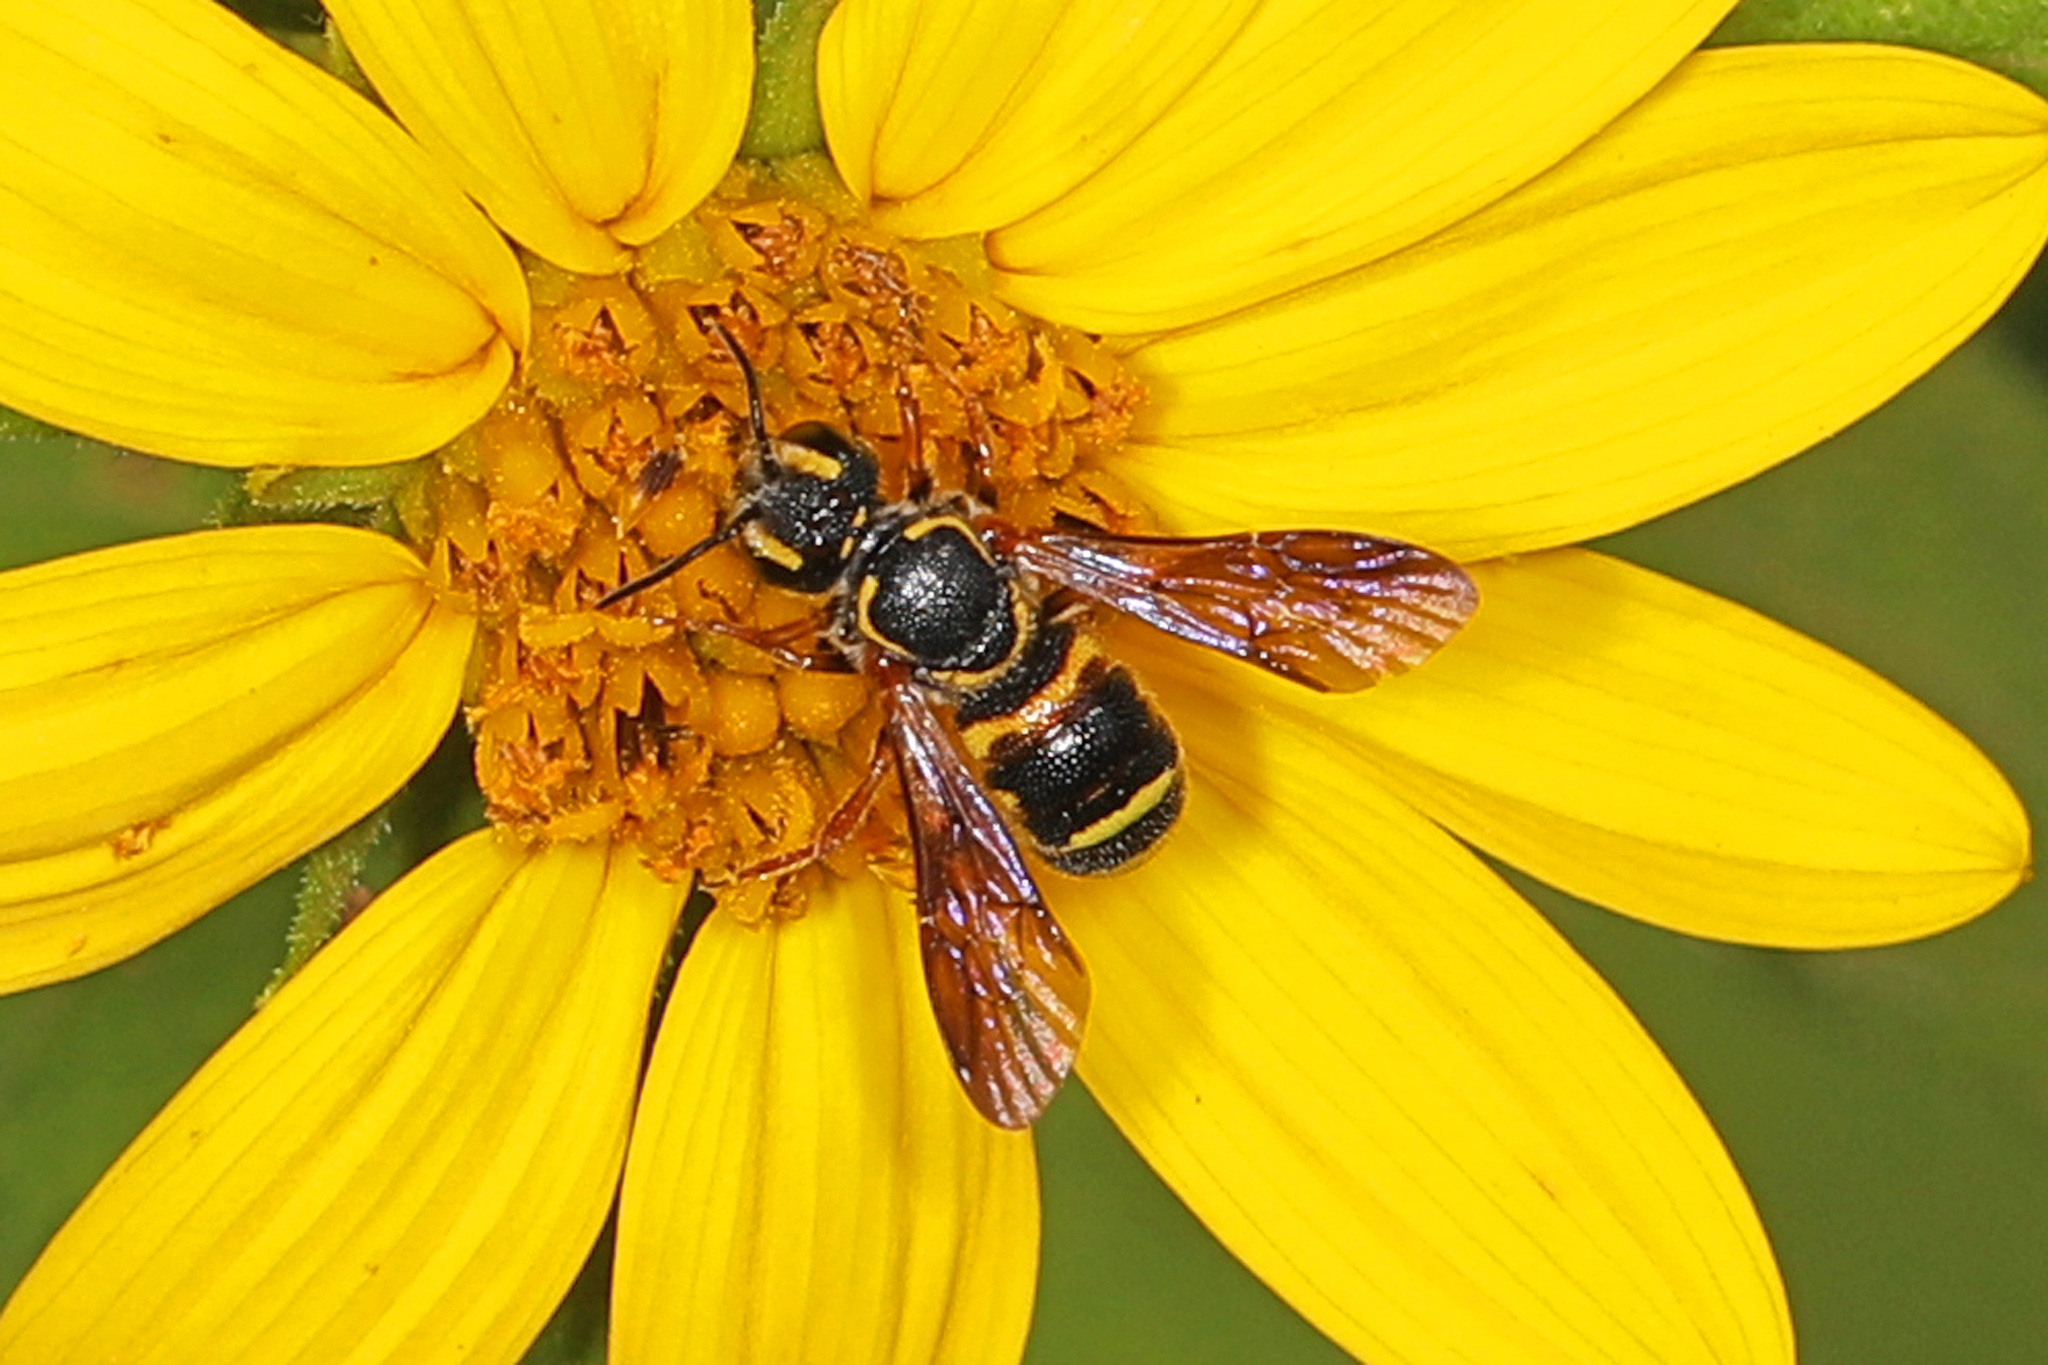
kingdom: Animalia
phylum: Arthropoda
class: Insecta
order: Hymenoptera
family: Megachilidae
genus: Stelis
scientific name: Stelis louisae
